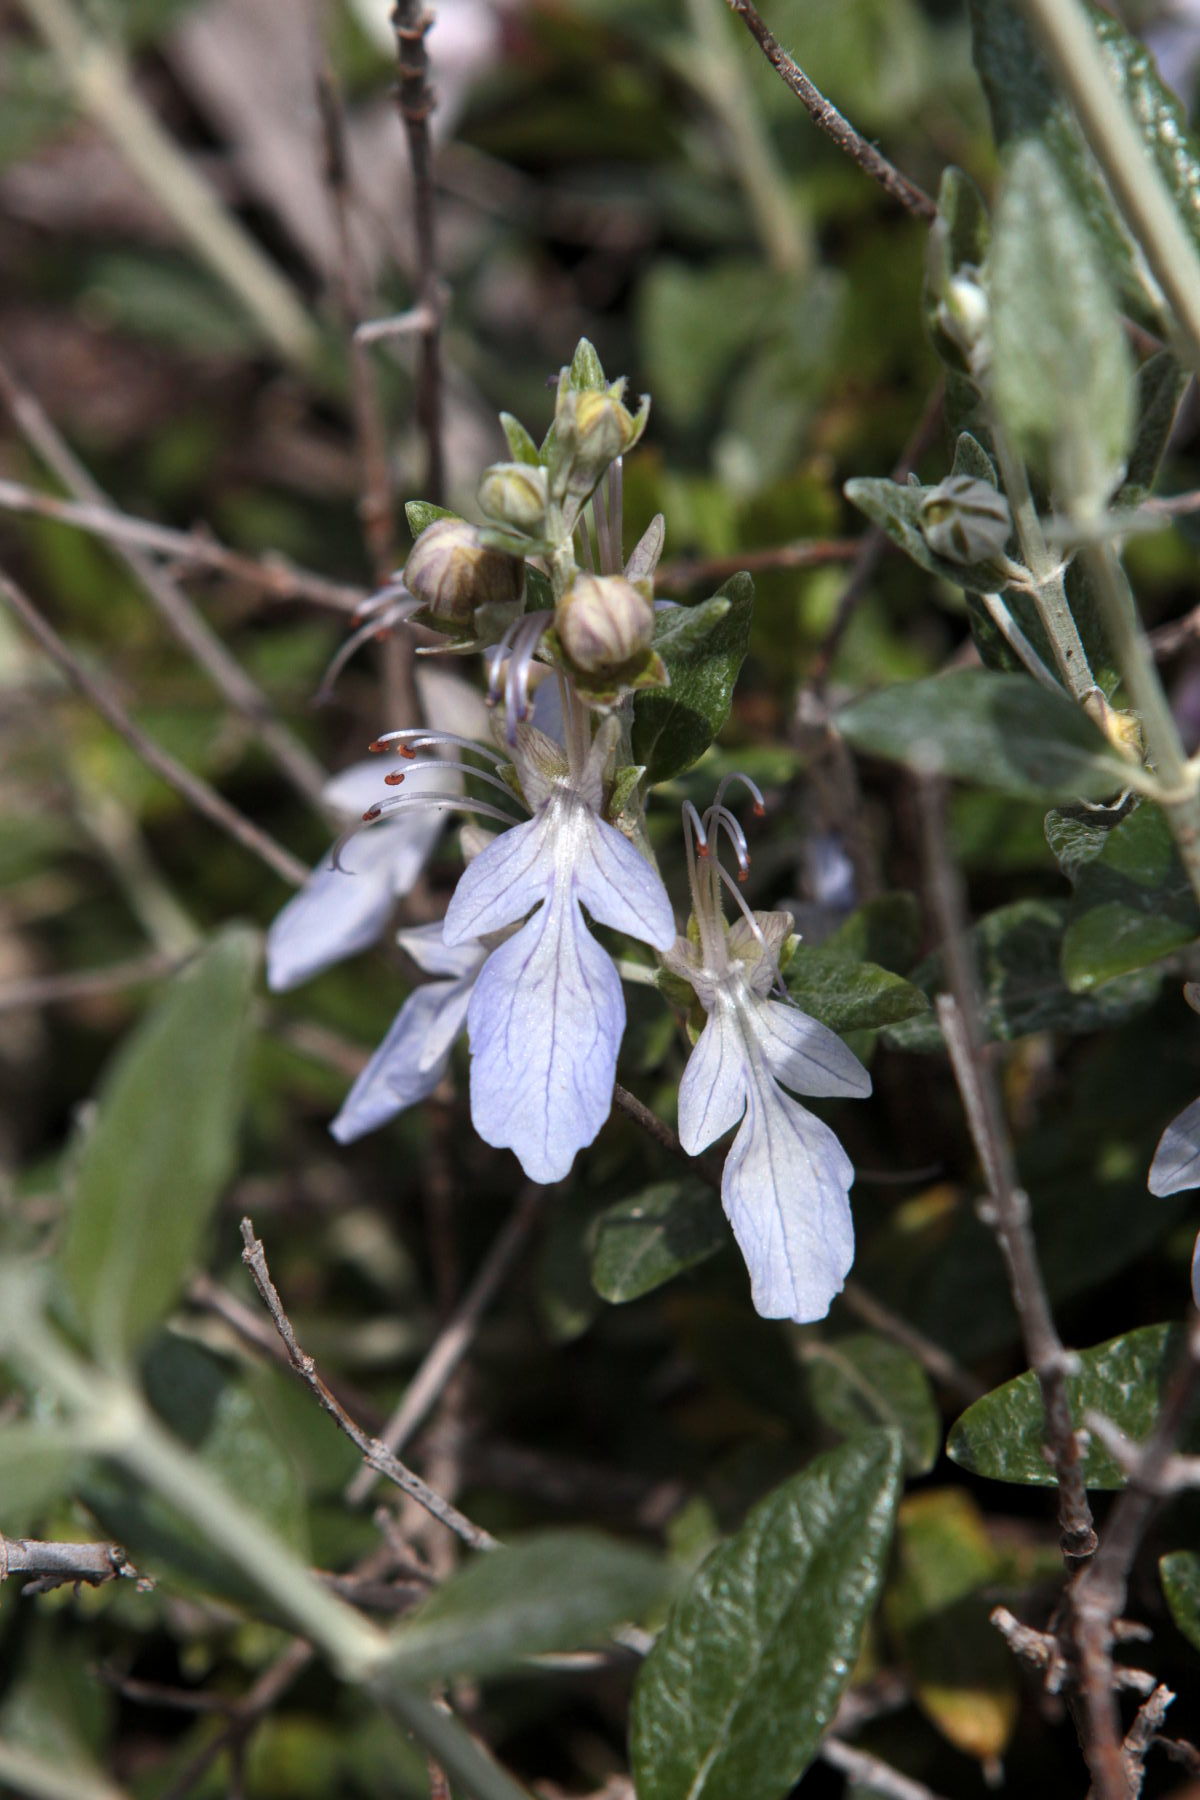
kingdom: Plantae
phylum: Tracheophyta
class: Magnoliopsida
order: Lamiales
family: Lamiaceae
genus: Teucrium
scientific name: Teucrium fruticans
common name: Shrubby germander
